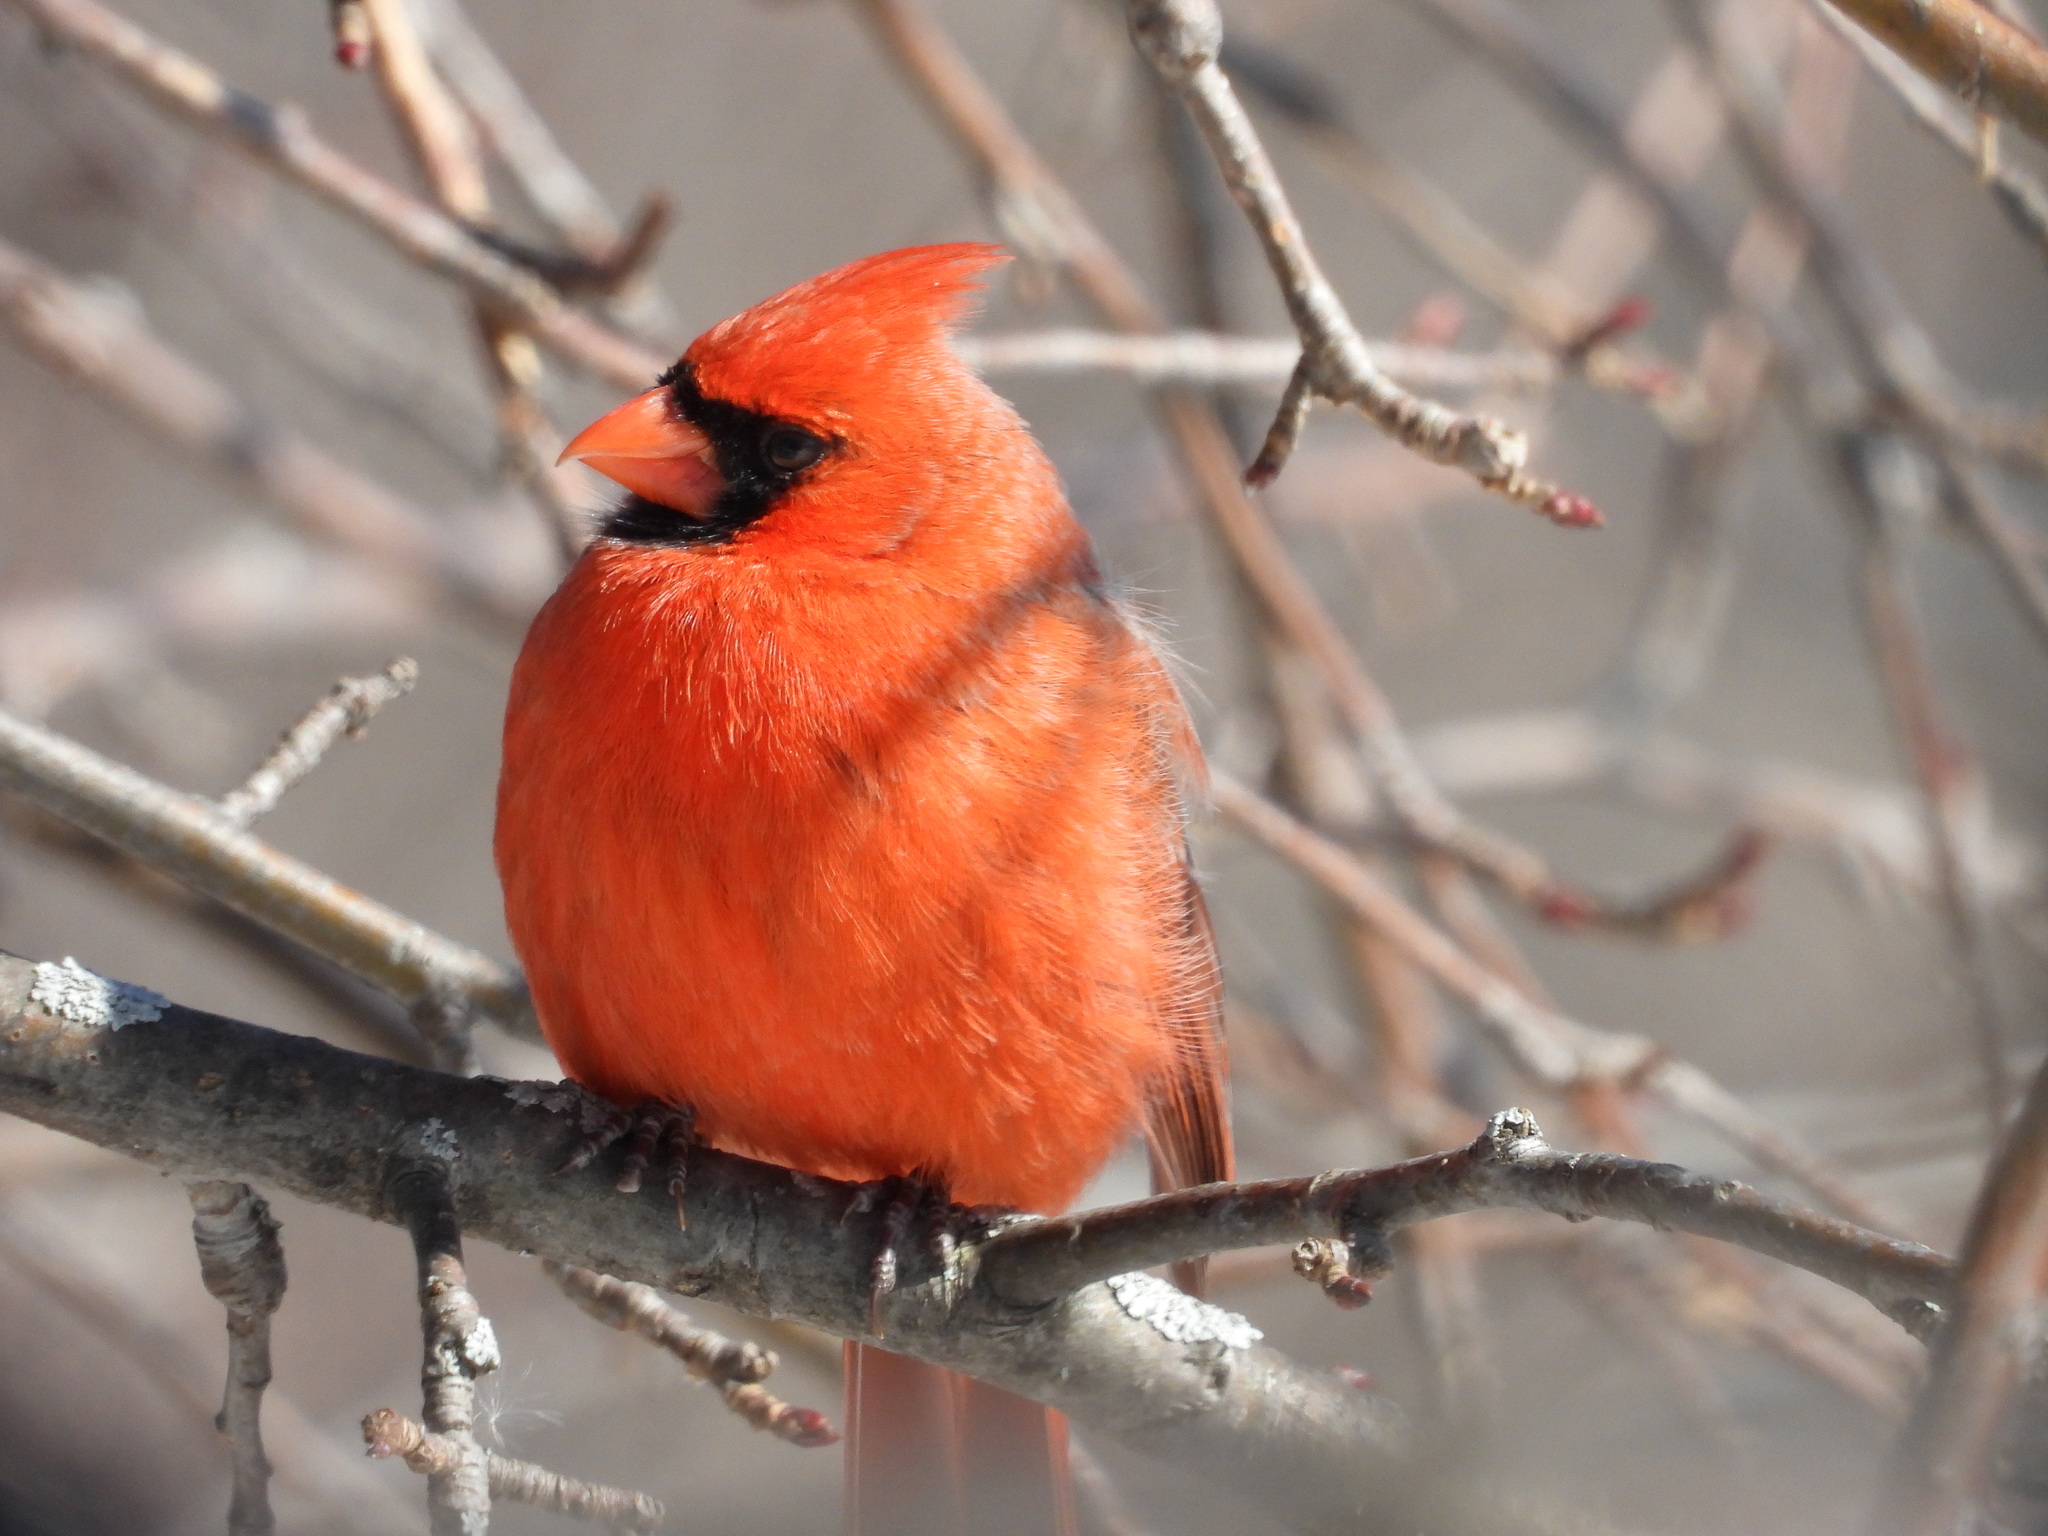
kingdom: Animalia
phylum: Chordata
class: Aves
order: Passeriformes
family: Cardinalidae
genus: Cardinalis
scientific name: Cardinalis cardinalis
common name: Northern cardinal
